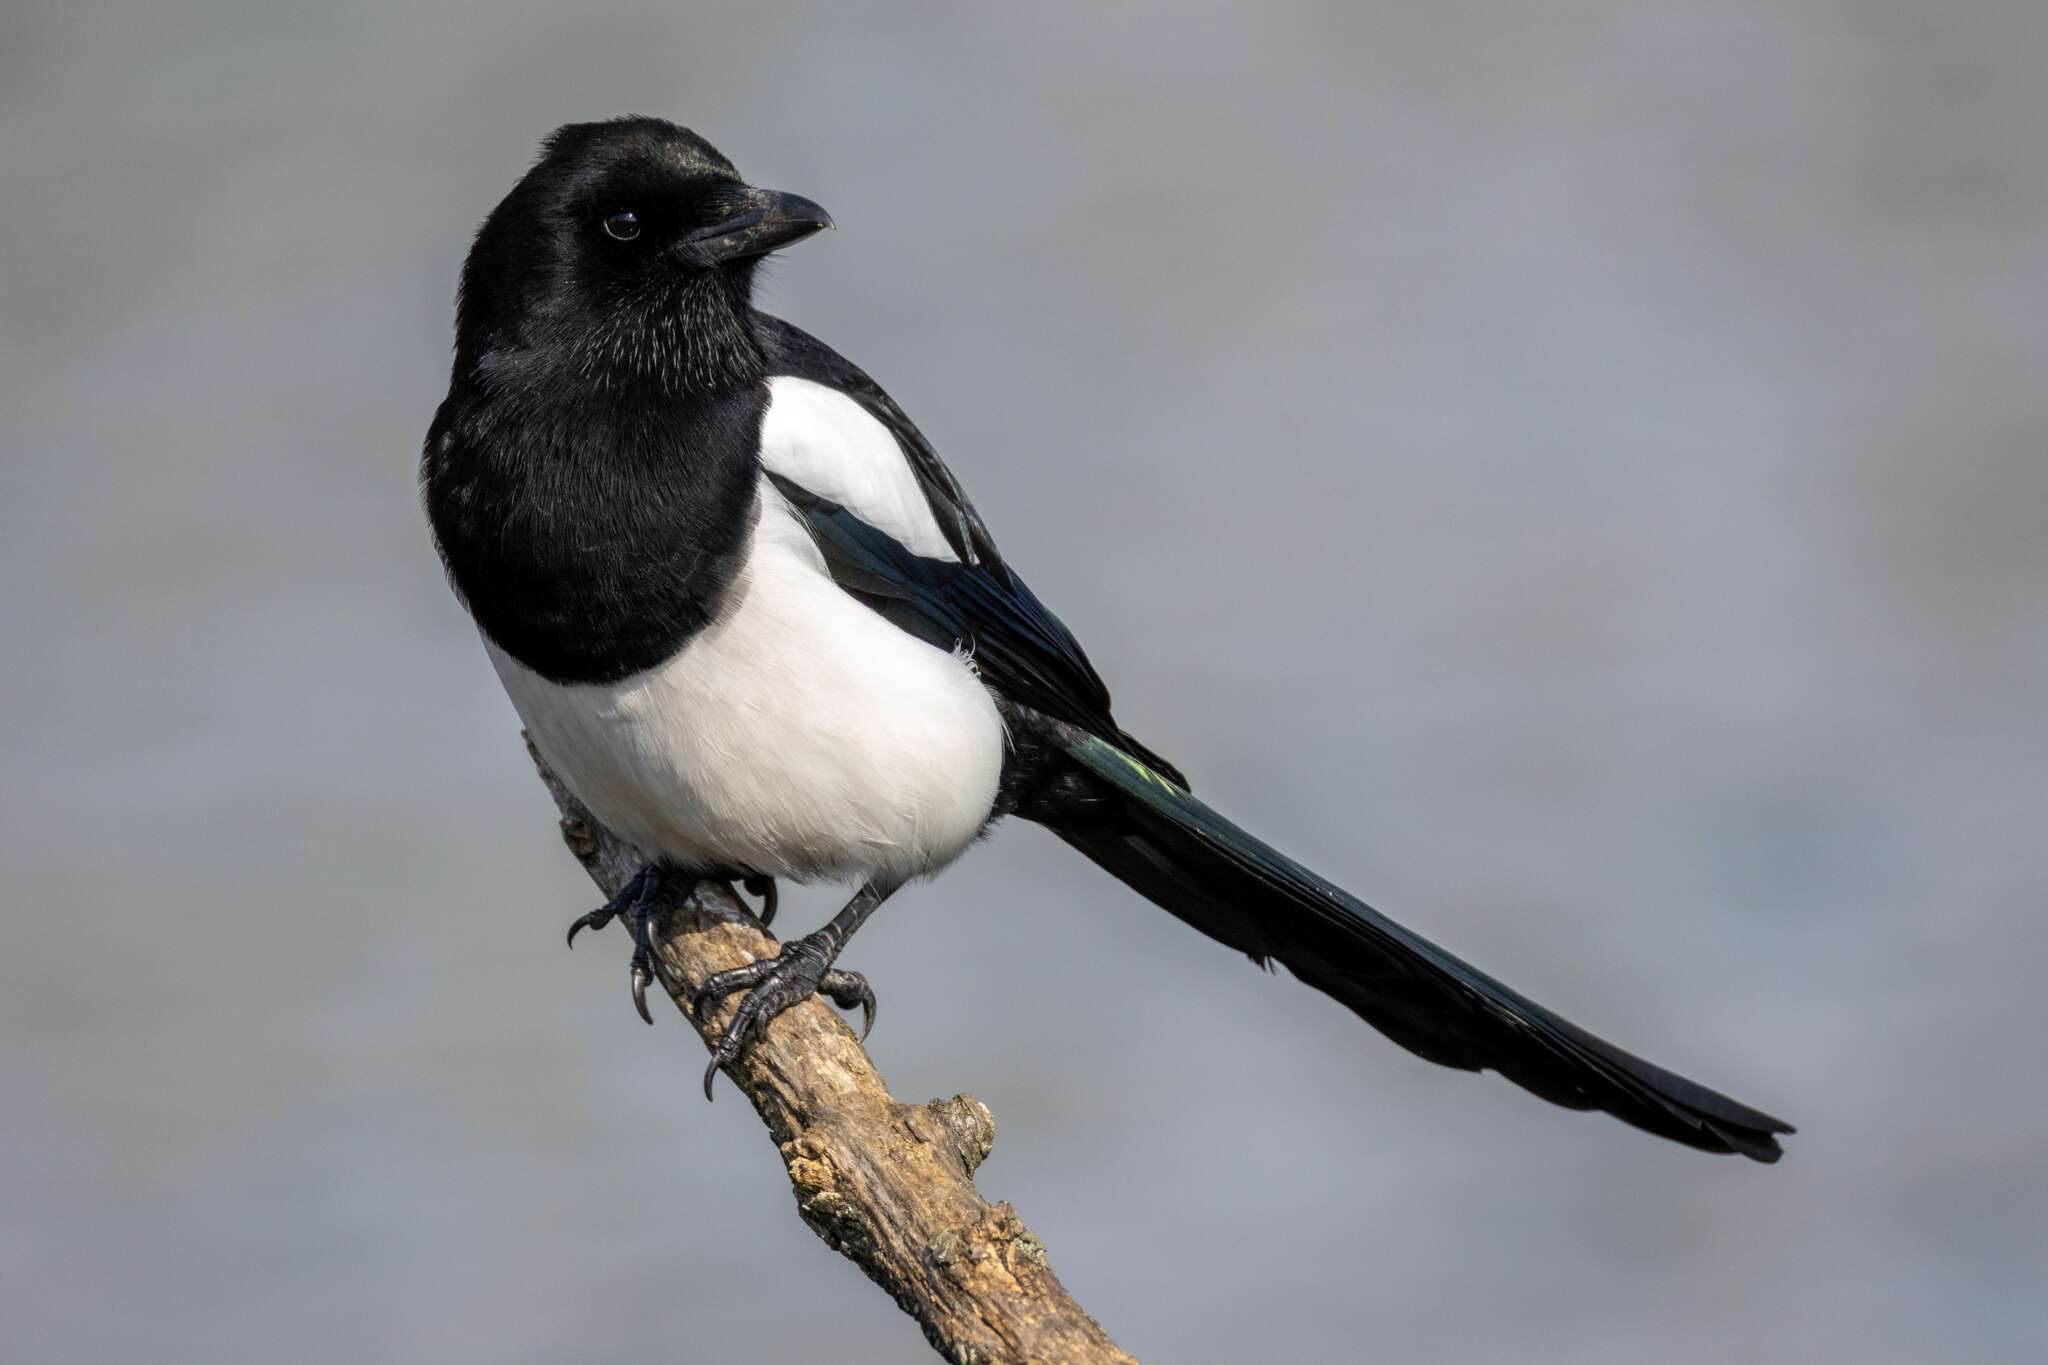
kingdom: Animalia
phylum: Chordata
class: Aves
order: Passeriformes
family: Corvidae
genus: Pica
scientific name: Pica pica
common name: Eurasian magpie
